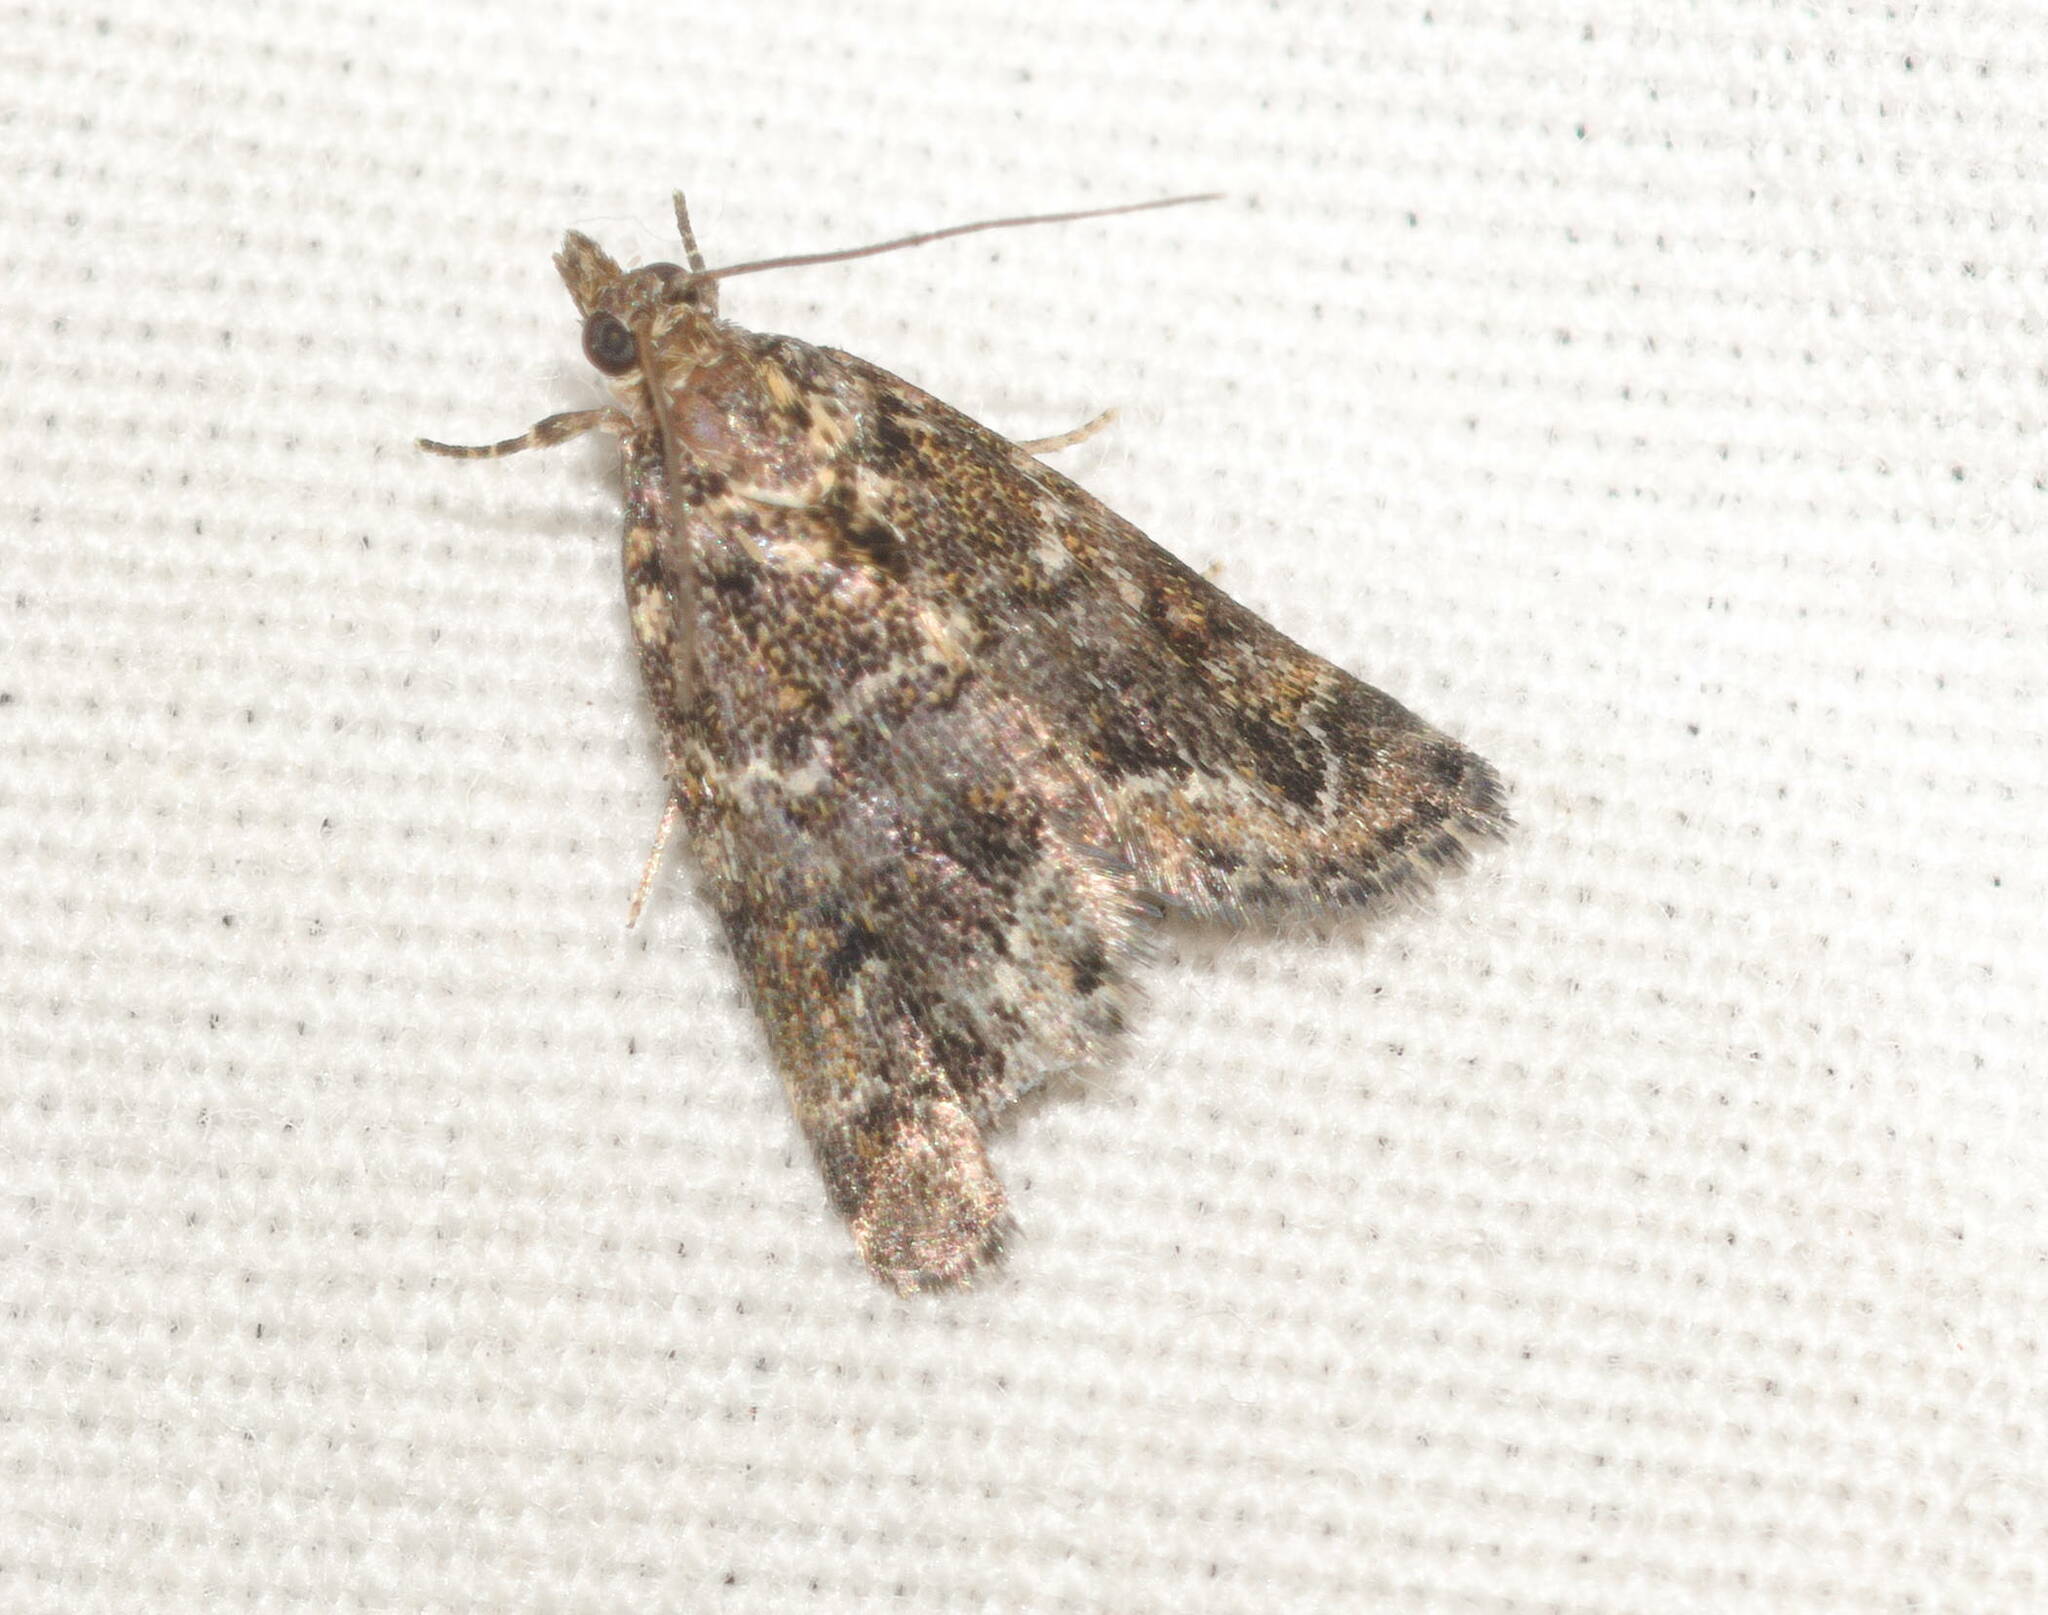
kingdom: Animalia
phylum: Arthropoda
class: Insecta
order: Lepidoptera
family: Crambidae
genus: Mestolobes
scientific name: Mestolobes abnormis
